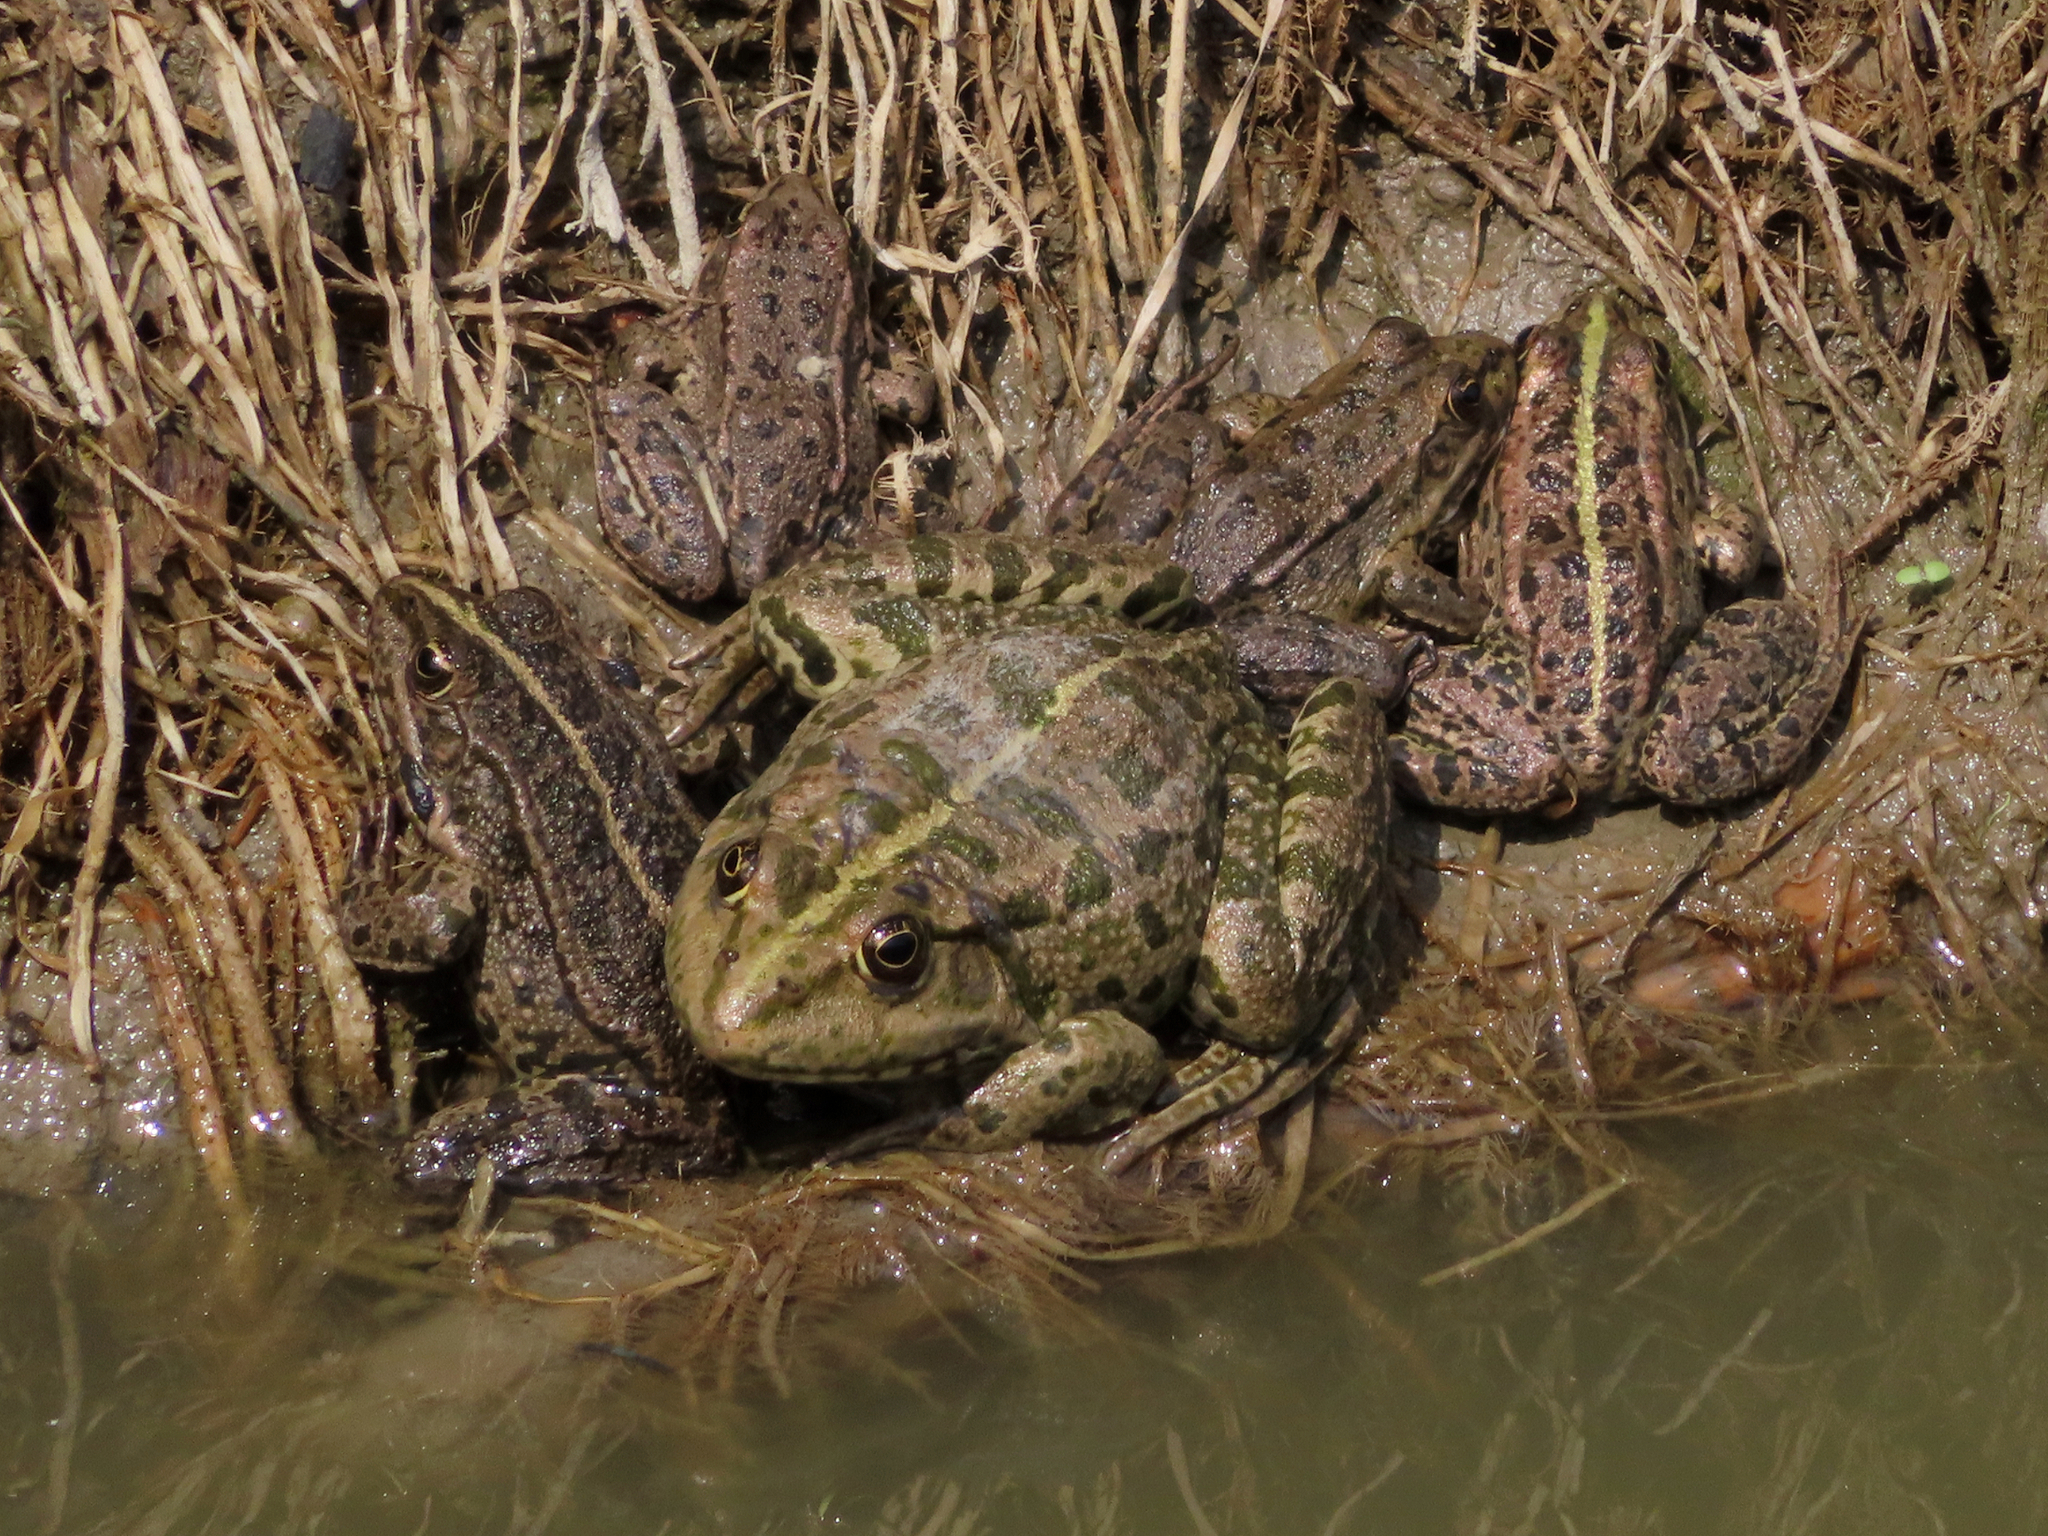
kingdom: Animalia
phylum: Chordata
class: Amphibia
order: Anura
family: Ranidae
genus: Pelophylax
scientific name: Pelophylax ridibundus
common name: Marsh frog
